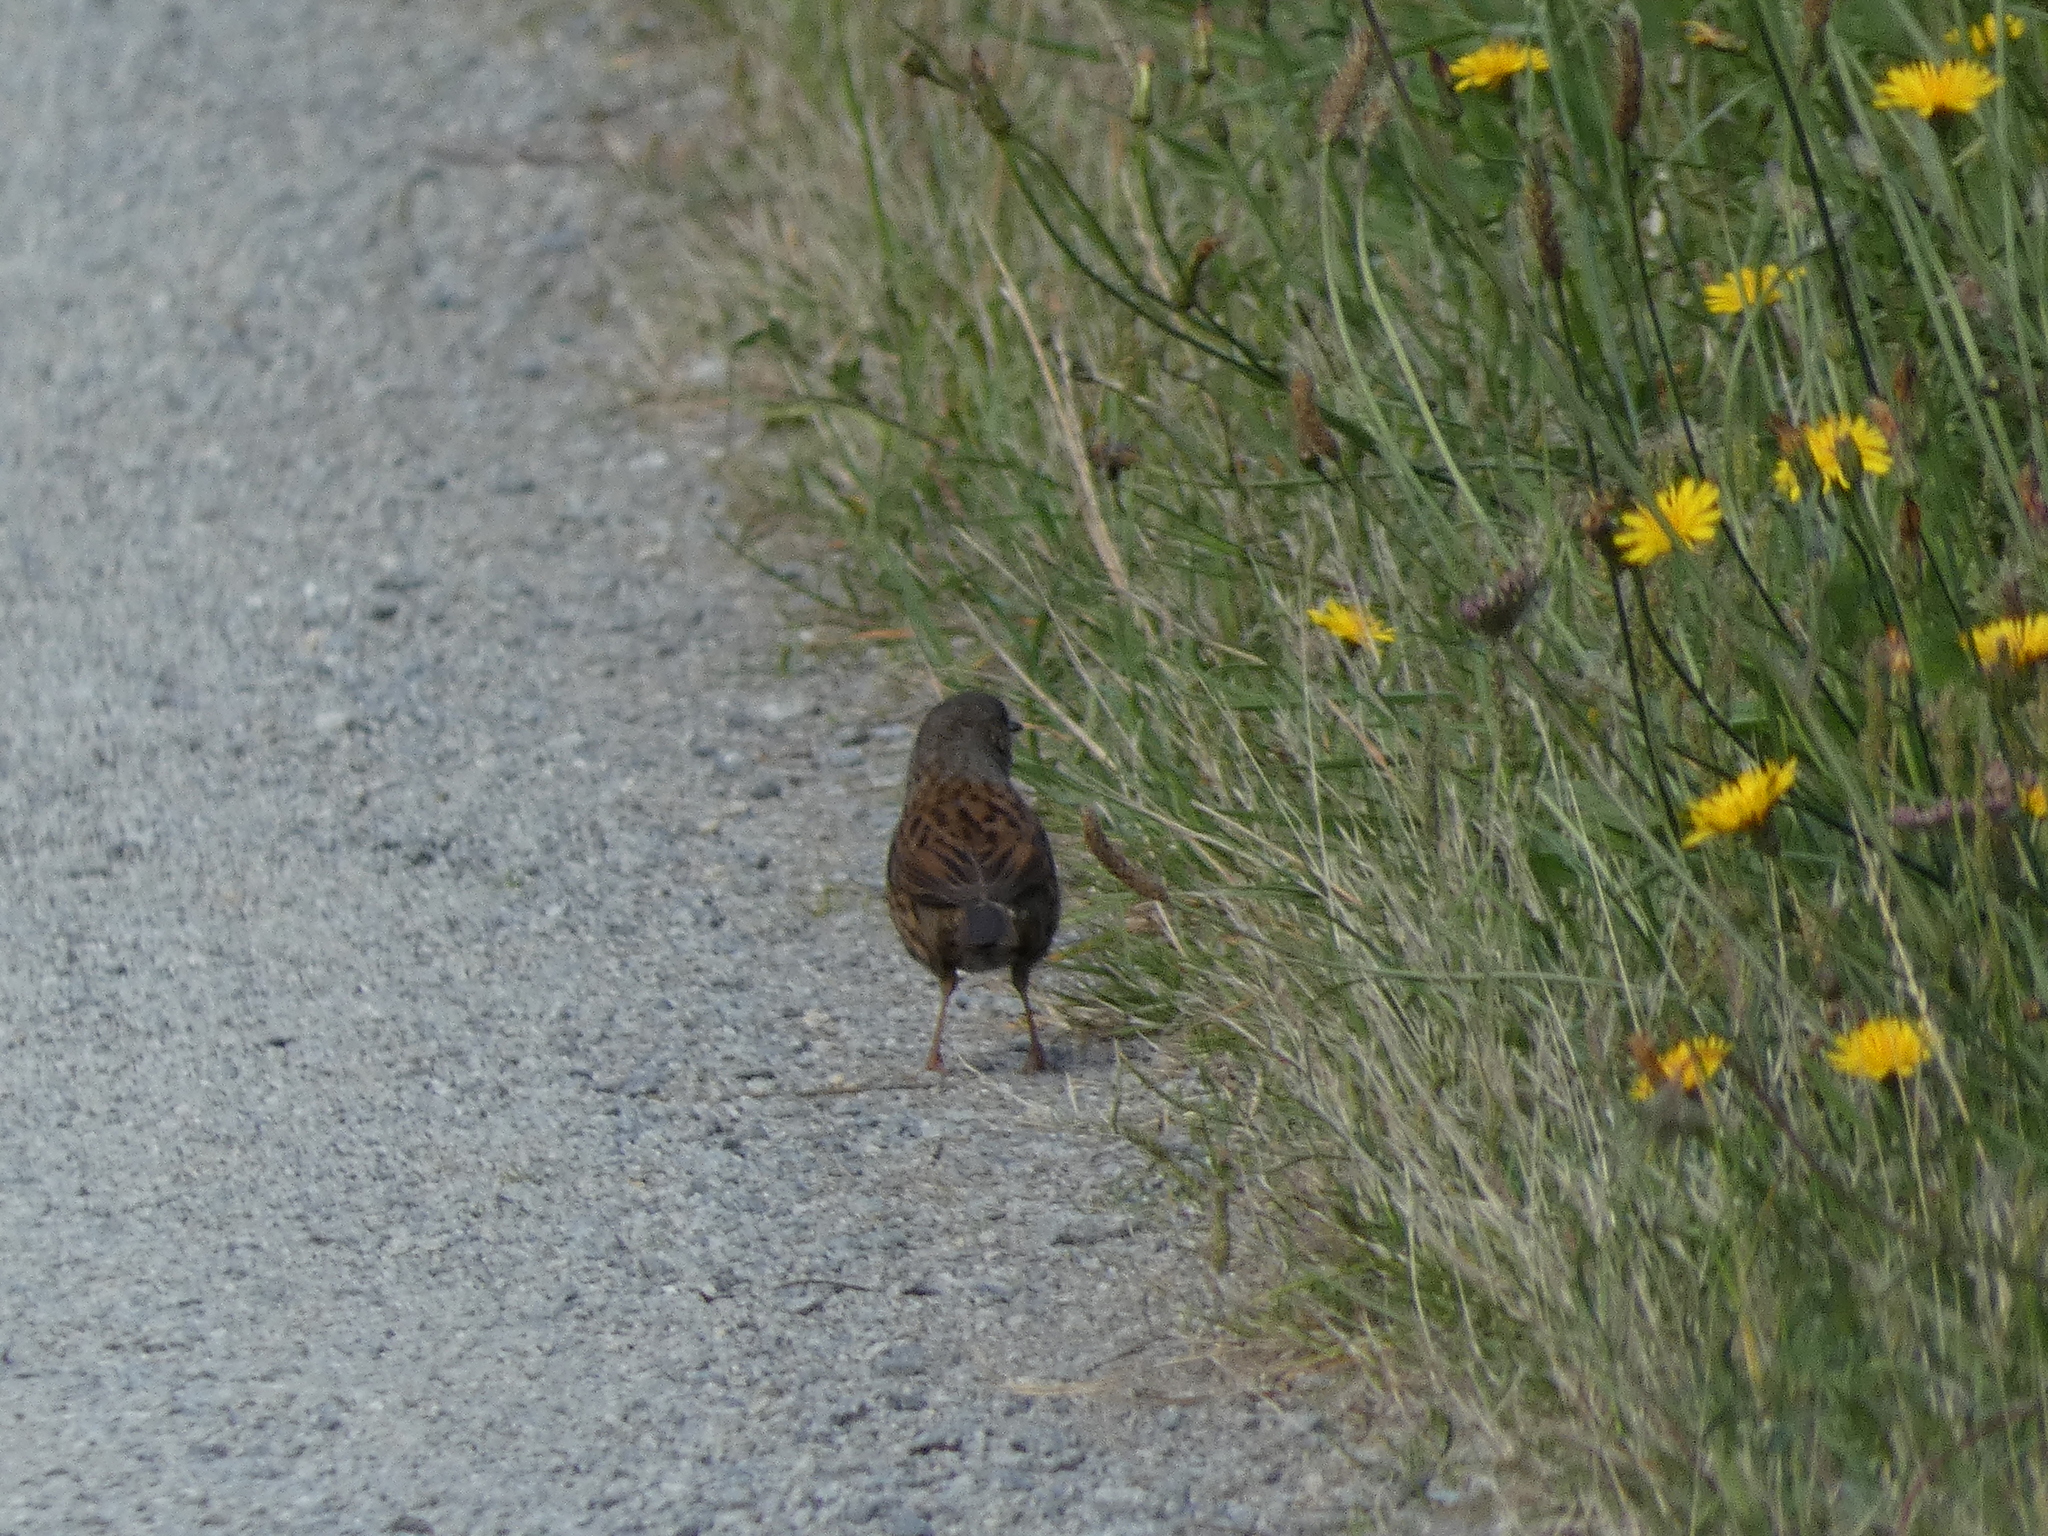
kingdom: Animalia
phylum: Chordata
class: Aves
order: Passeriformes
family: Prunellidae
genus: Prunella
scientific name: Prunella modularis
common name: Dunnock
